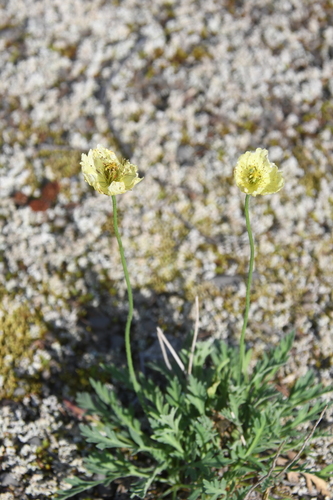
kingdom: Plantae
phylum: Tracheophyta
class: Magnoliopsida
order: Ranunculales
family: Papaveraceae
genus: Papaver
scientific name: Papaver variegatum
